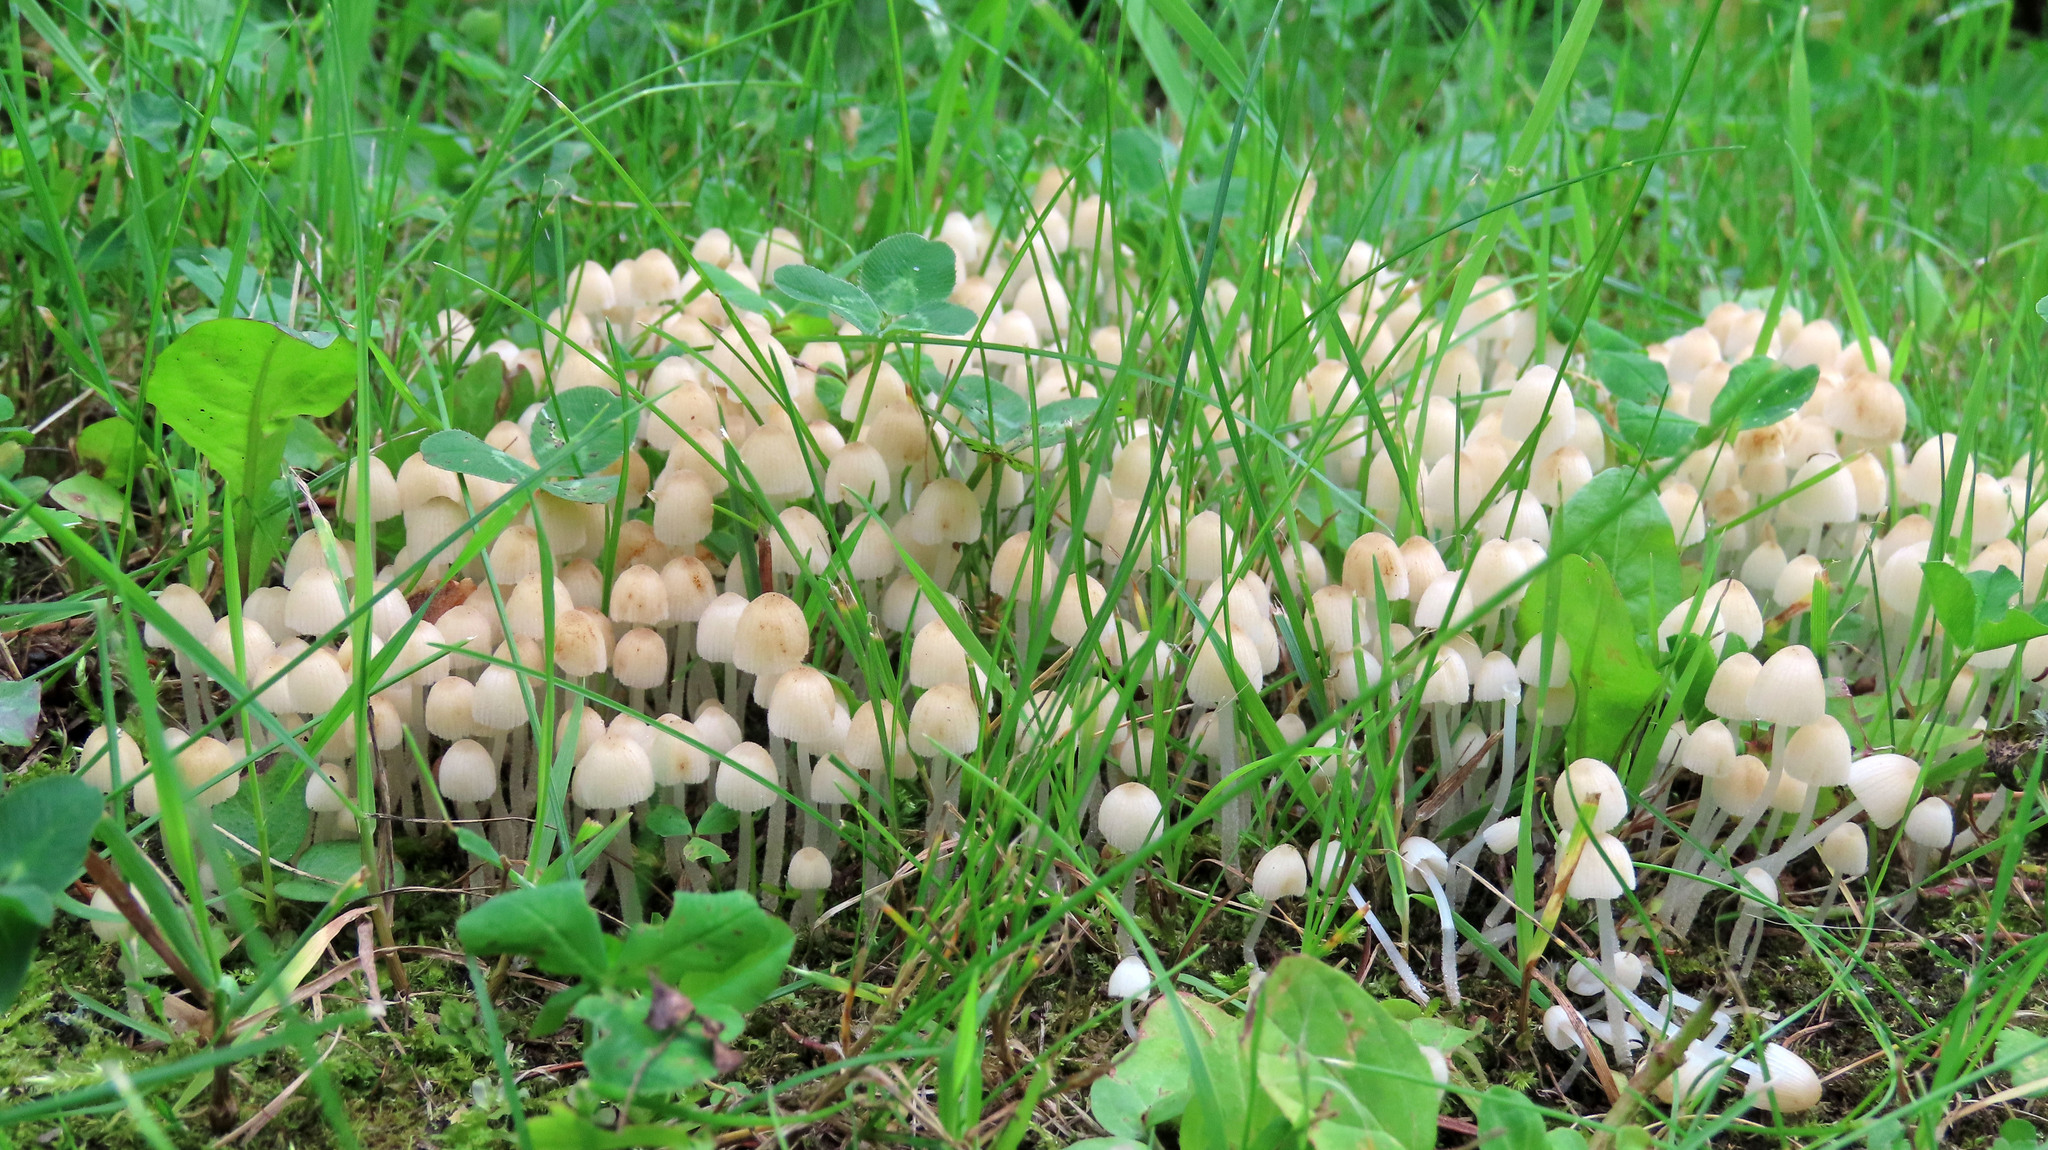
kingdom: Fungi
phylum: Basidiomycota
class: Agaricomycetes
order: Agaricales
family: Psathyrellaceae
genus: Coprinellus
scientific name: Coprinellus disseminatus
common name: Fairies' bonnets
